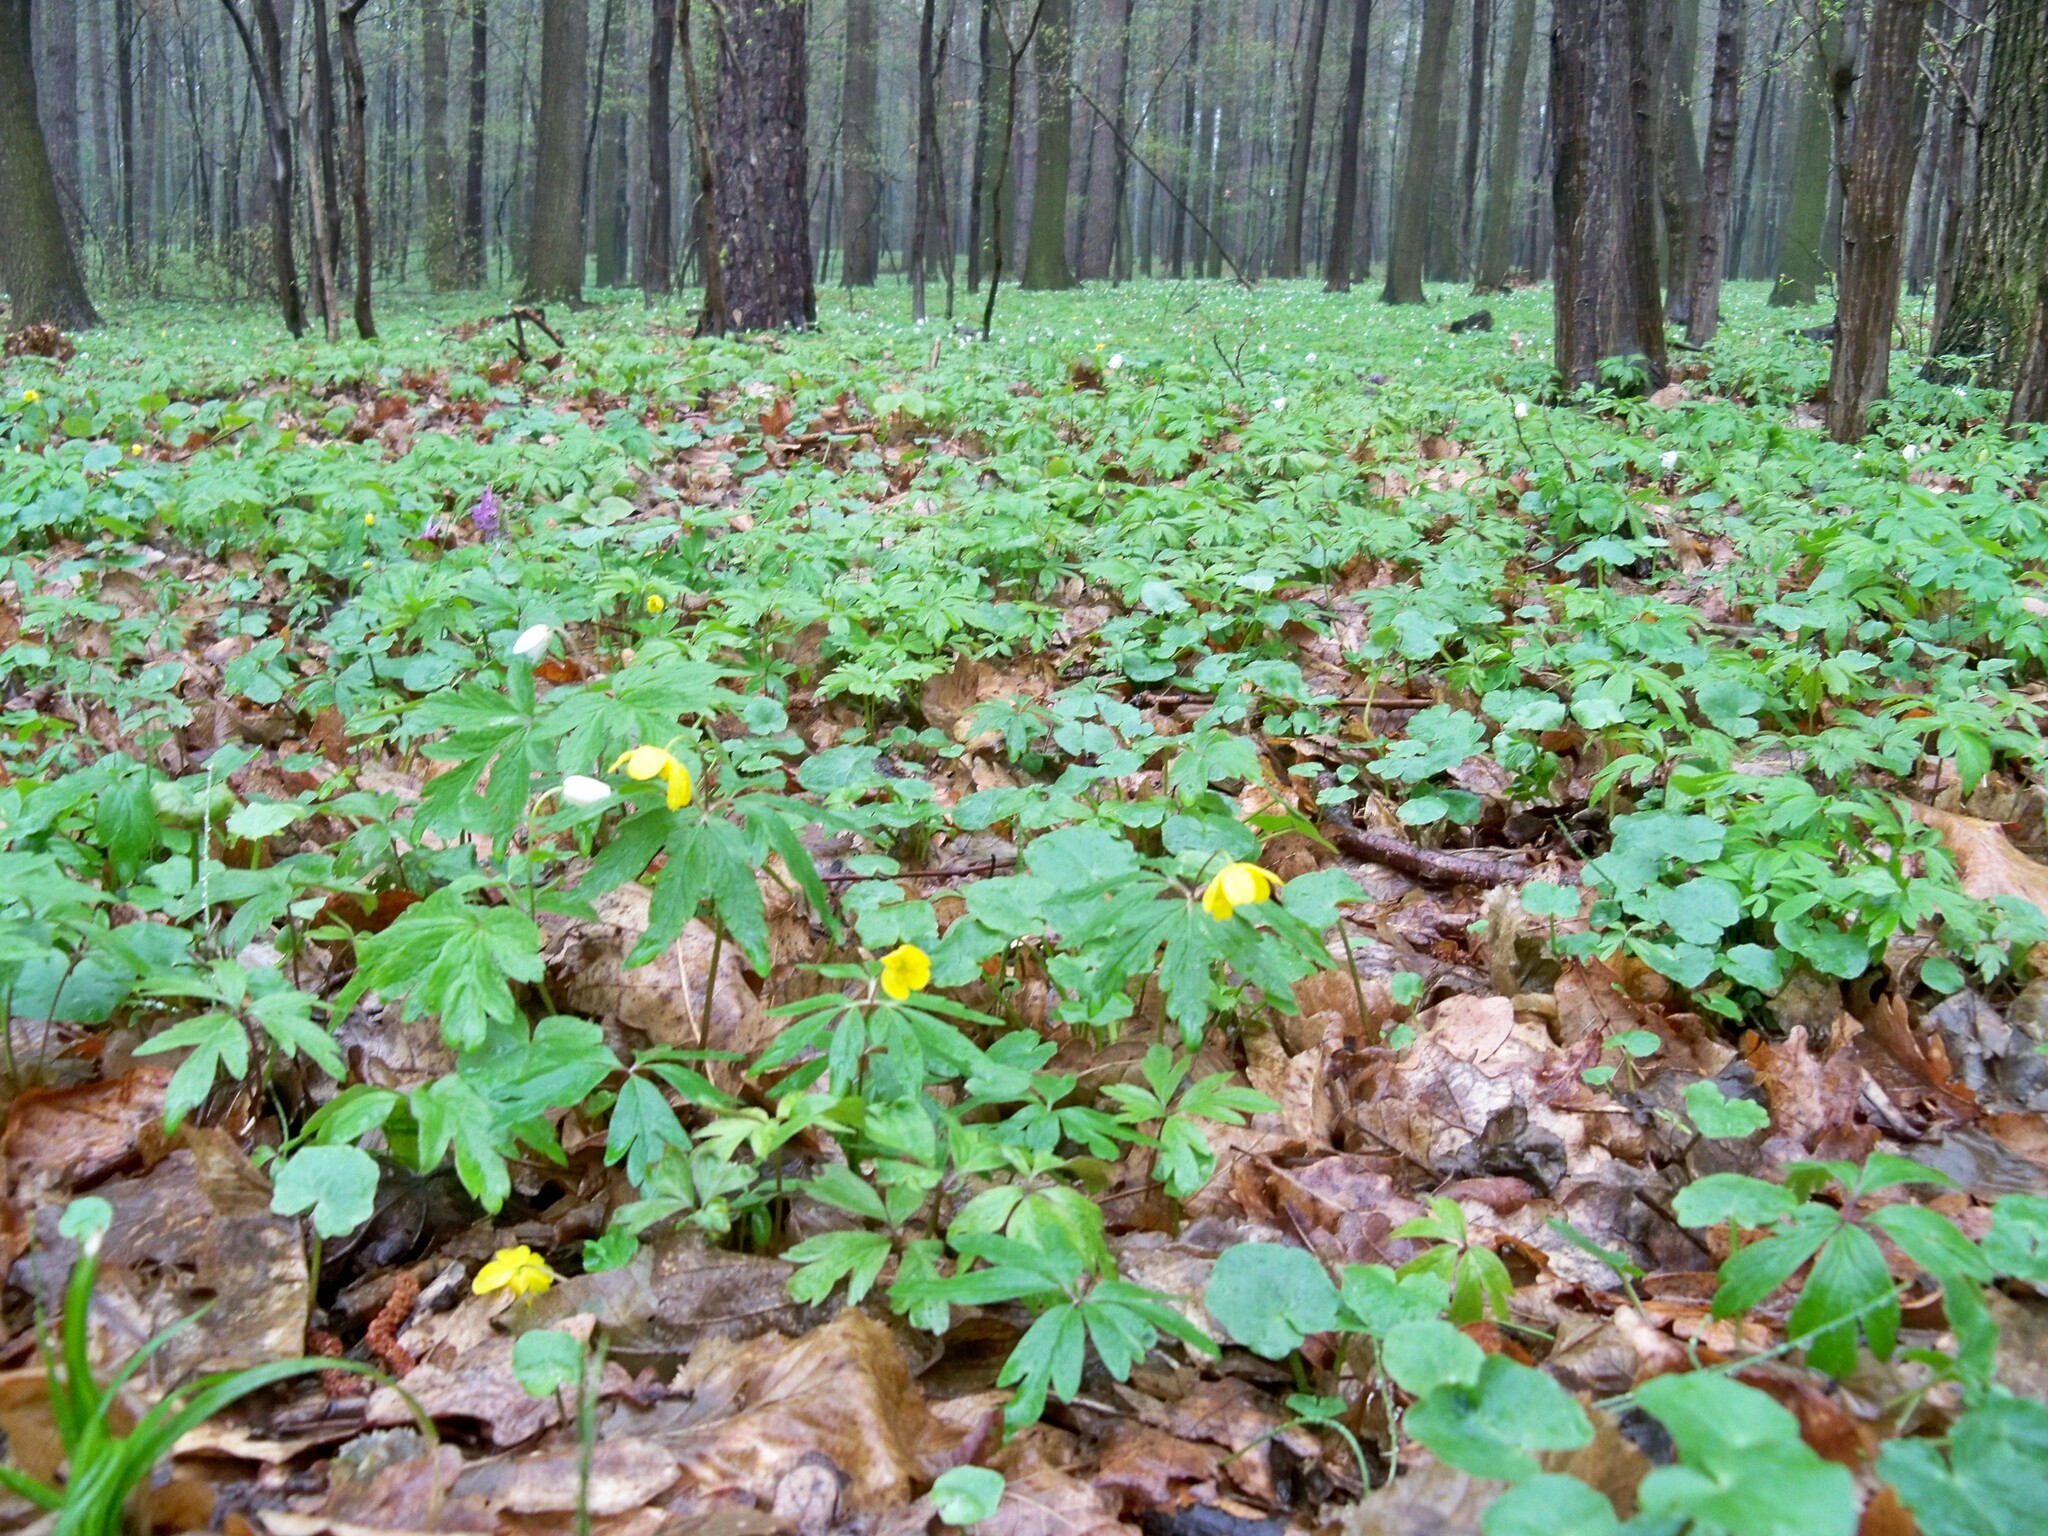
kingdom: Plantae
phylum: Tracheophyta
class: Magnoliopsida
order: Ranunculales
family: Ranunculaceae
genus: Anemone
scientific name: Anemone ranunculoides
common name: Yellow anemone
